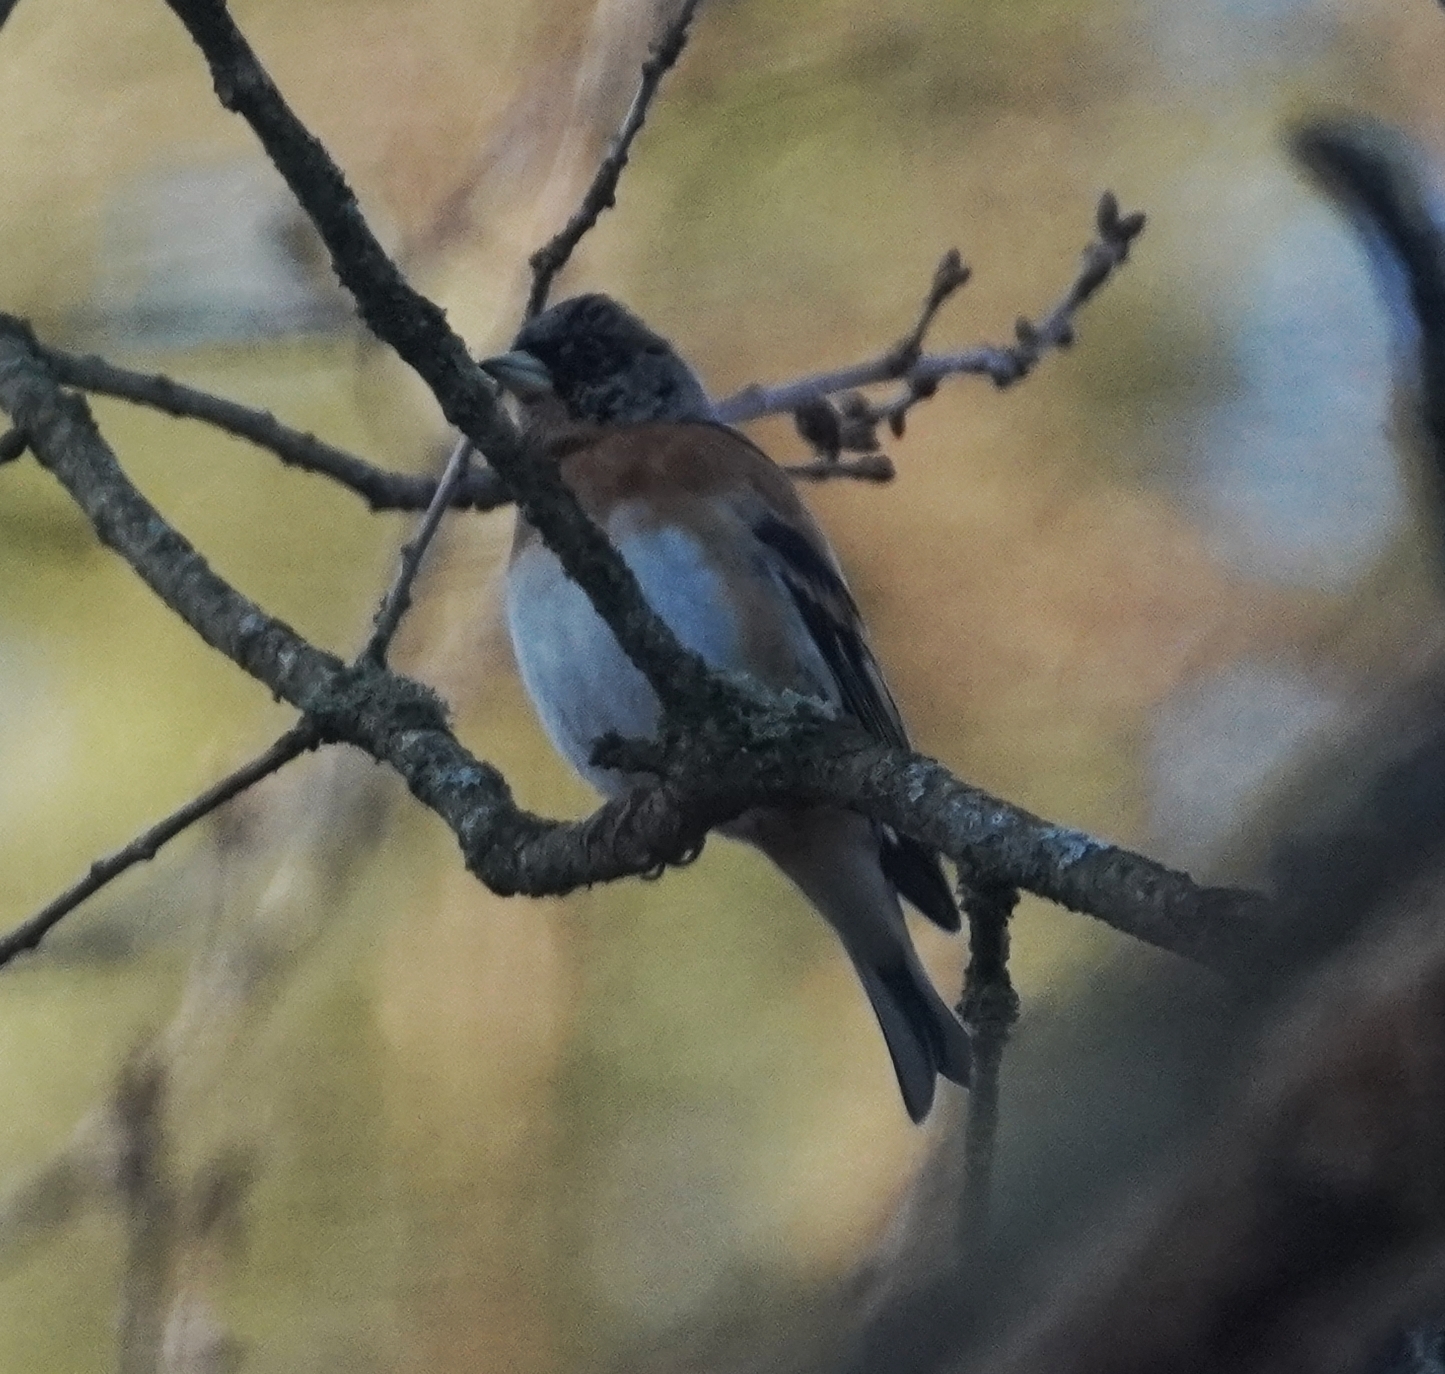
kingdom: Animalia
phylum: Chordata
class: Aves
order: Passeriformes
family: Fringillidae
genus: Fringilla
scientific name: Fringilla montifringilla
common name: Brambling
